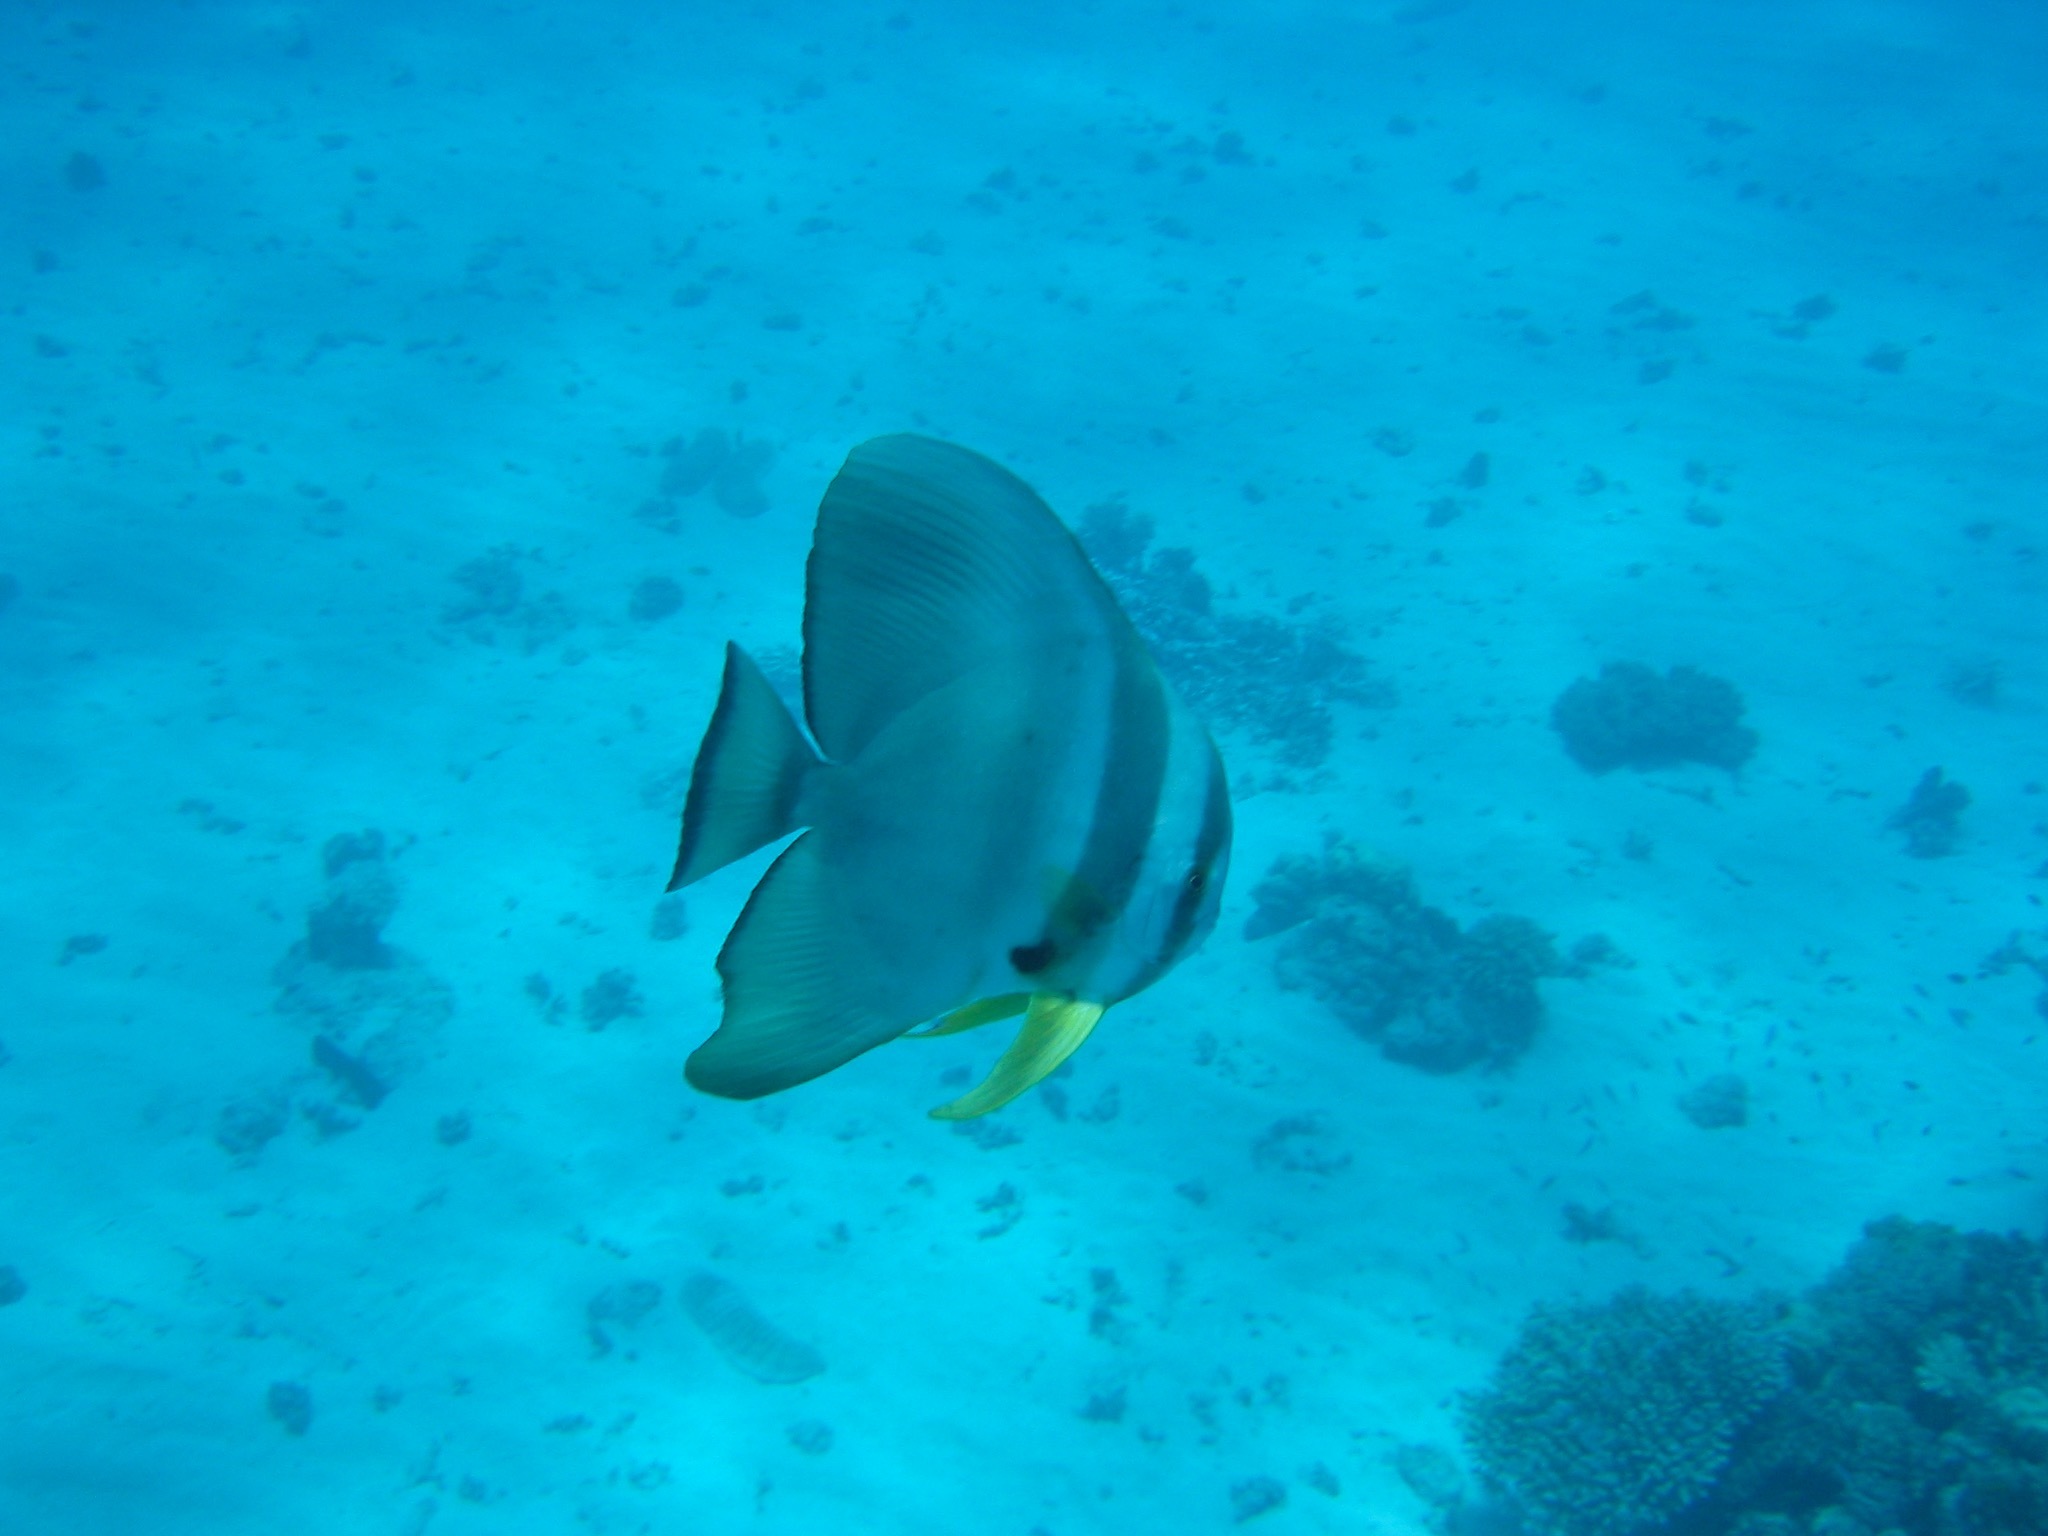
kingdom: Animalia
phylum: Chordata
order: Perciformes
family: Ephippidae
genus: Platax
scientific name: Platax teira
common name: Longfin baitfish
